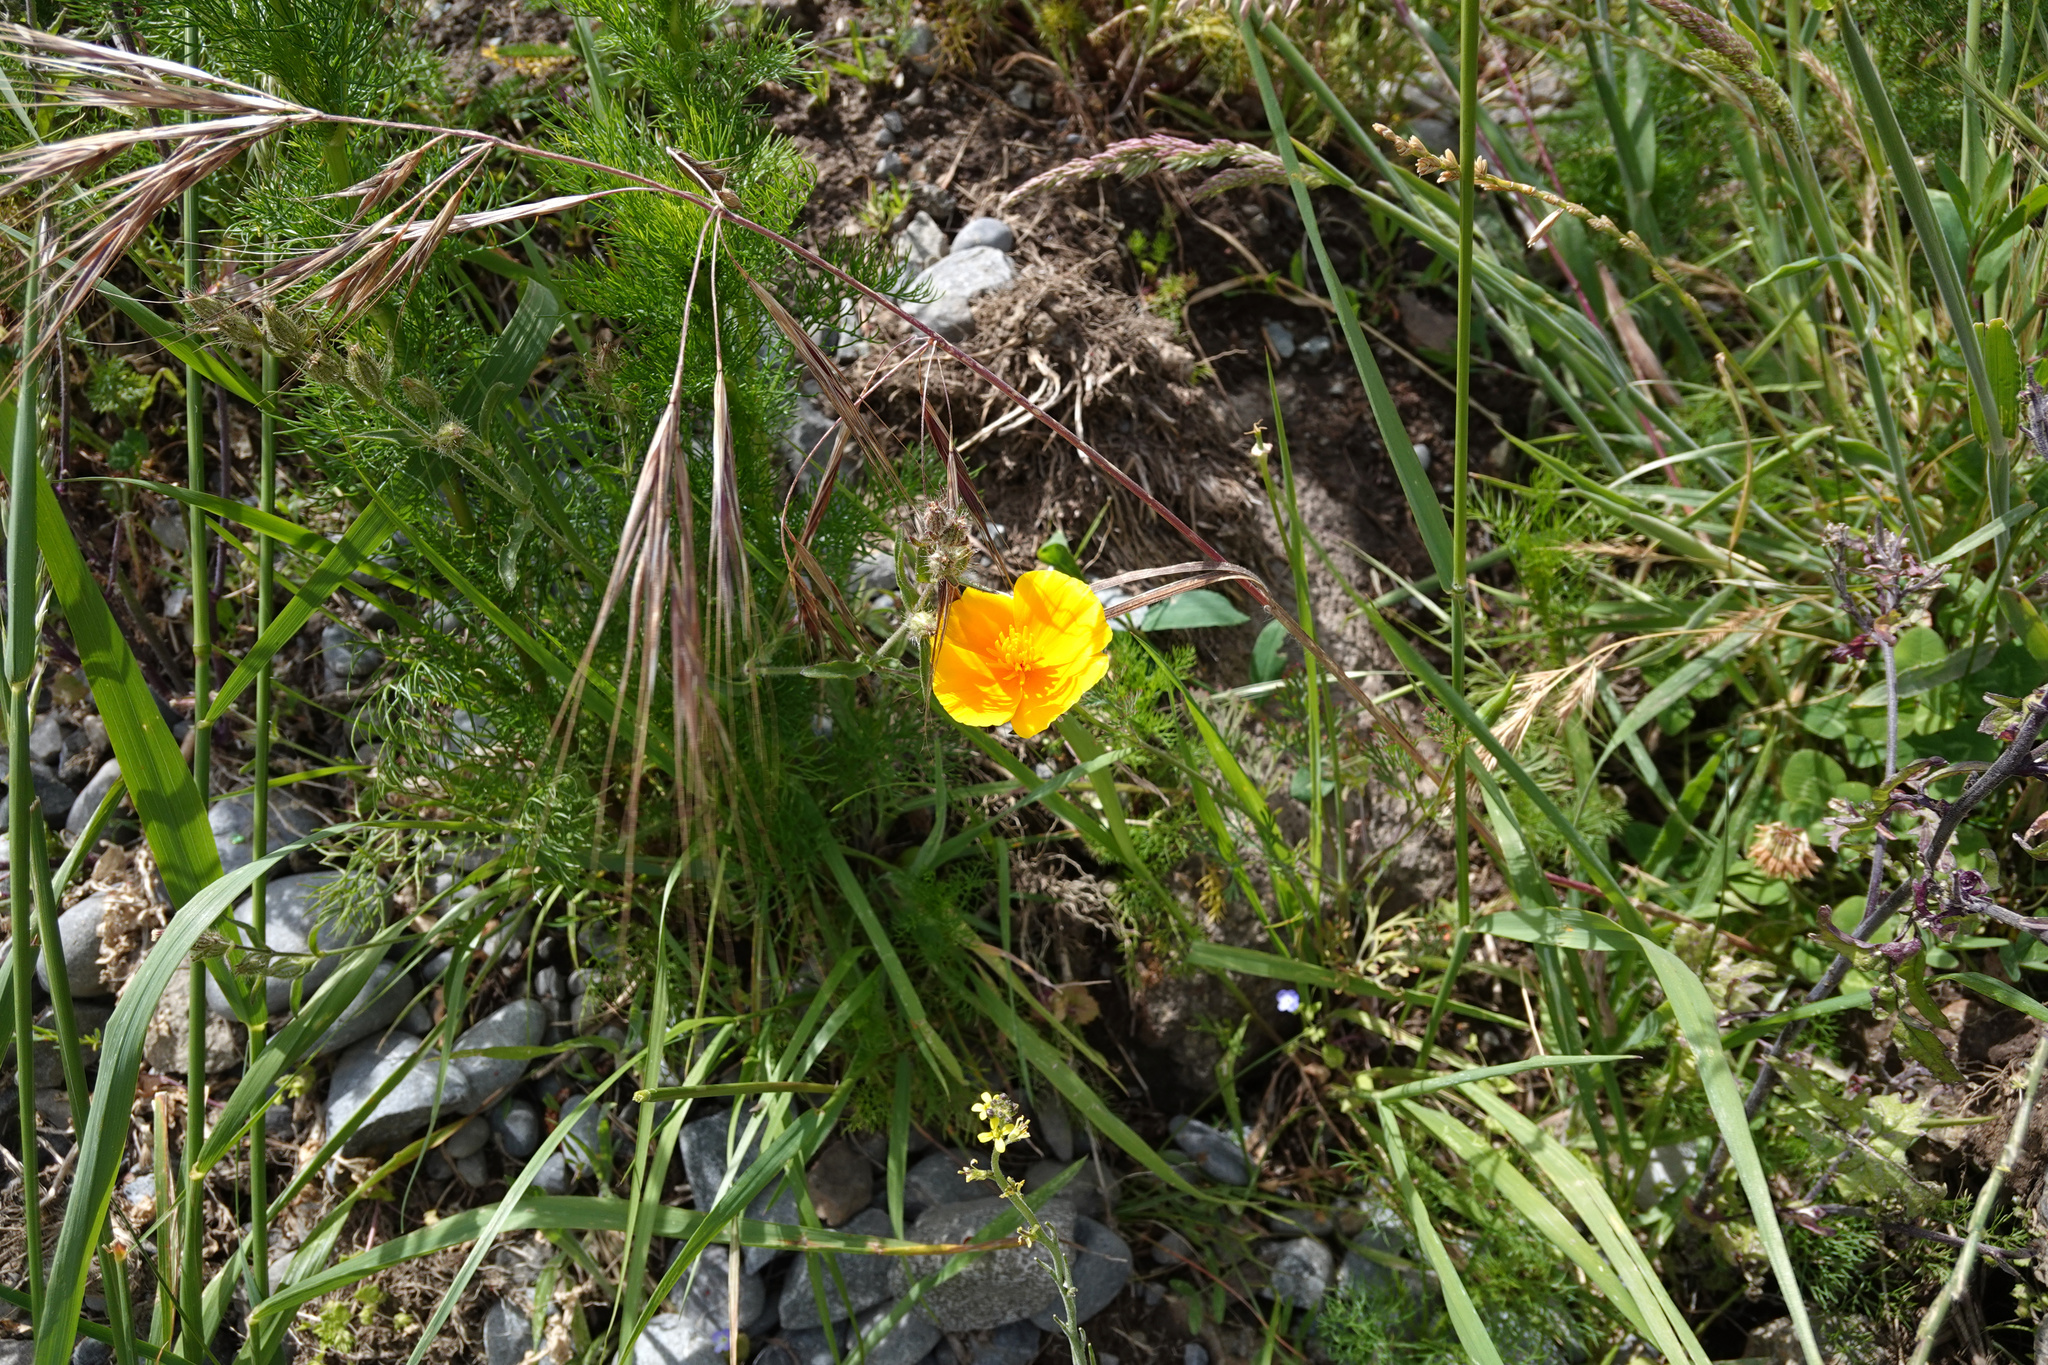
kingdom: Plantae
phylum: Tracheophyta
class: Magnoliopsida
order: Ranunculales
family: Papaveraceae
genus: Eschscholzia
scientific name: Eschscholzia californica
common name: California poppy
